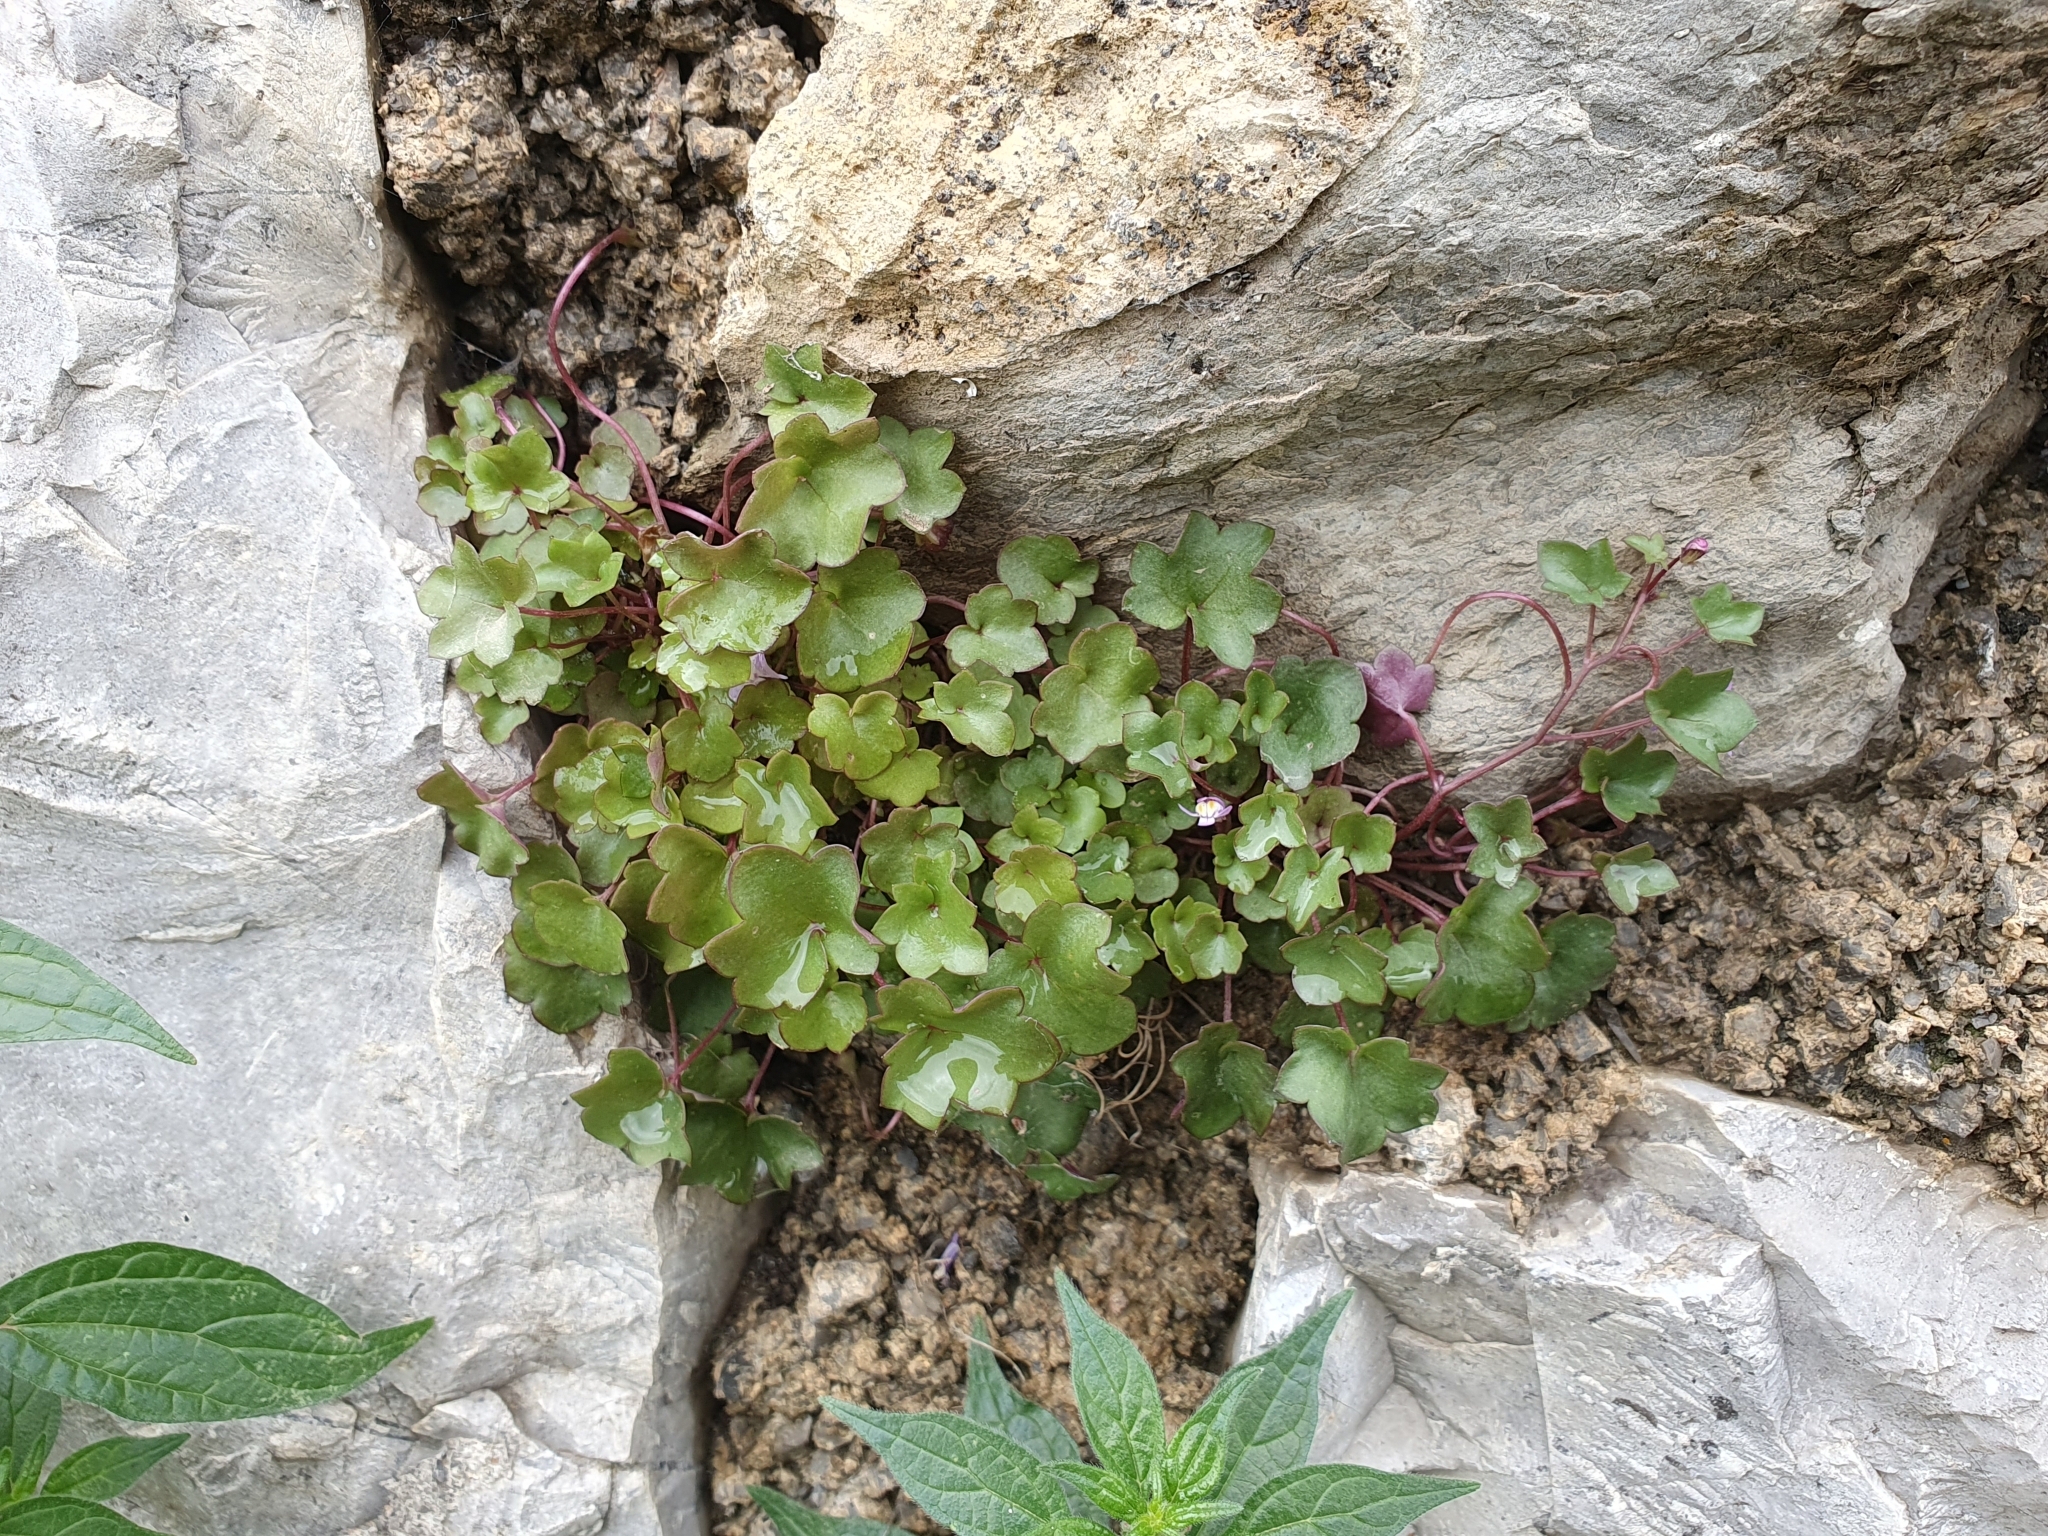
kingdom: Plantae
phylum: Tracheophyta
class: Magnoliopsida
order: Lamiales
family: Plantaginaceae
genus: Cymbalaria
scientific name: Cymbalaria muralis
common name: Ivy-leaved toadflax
